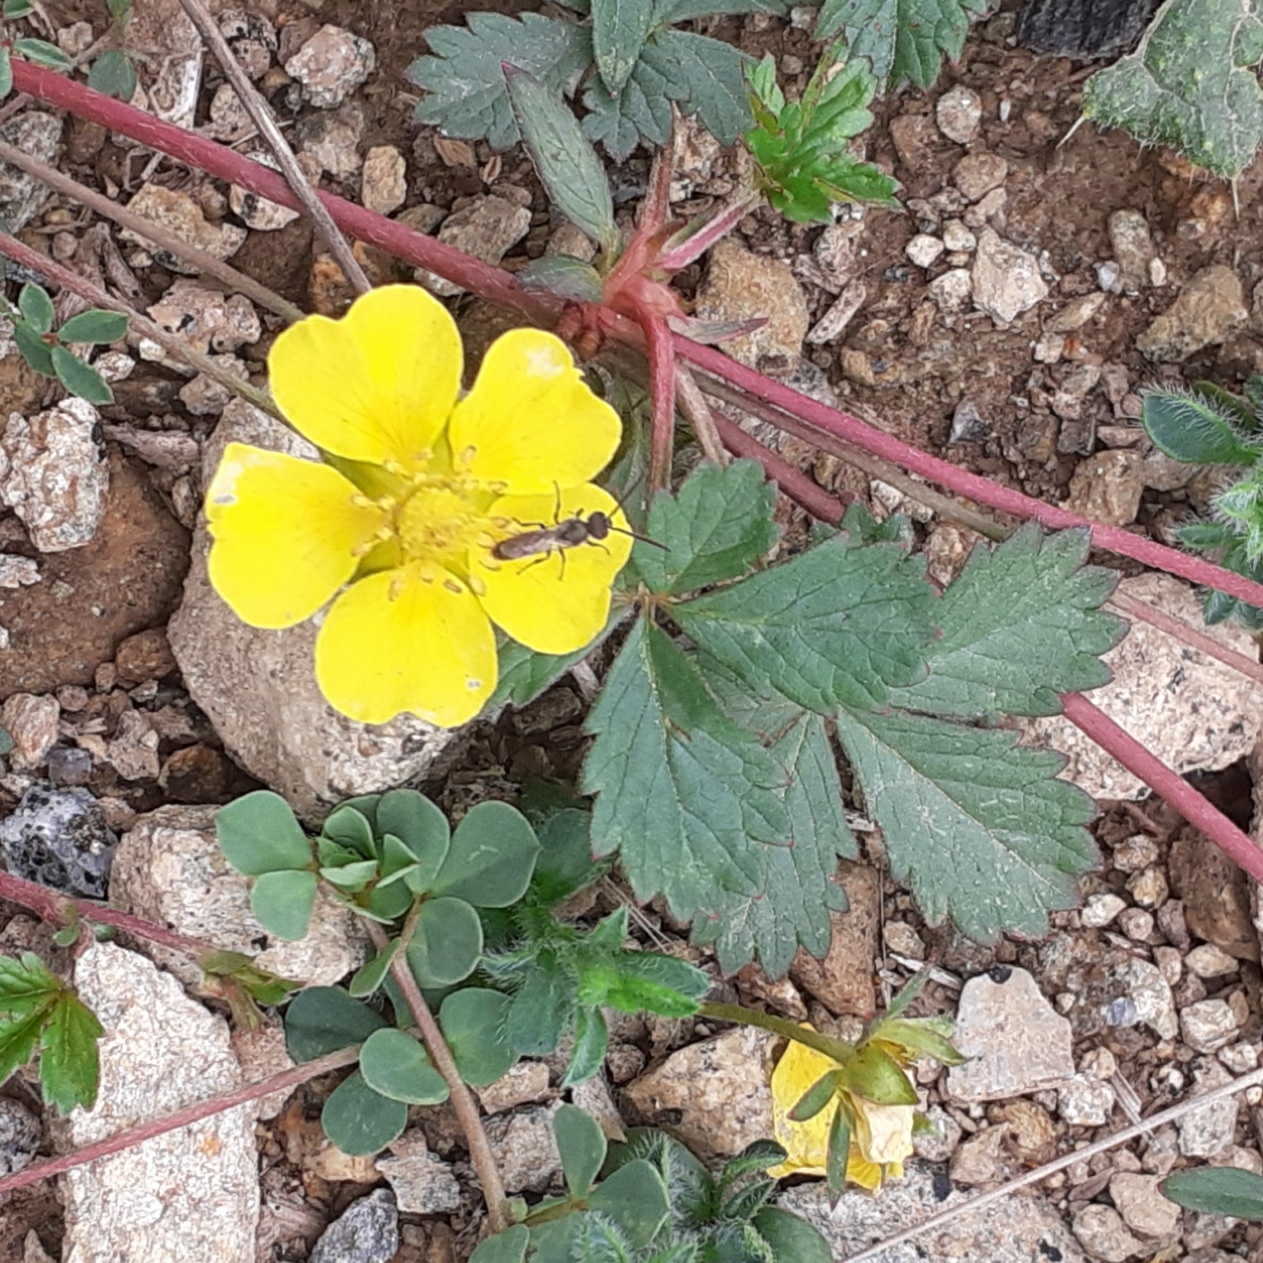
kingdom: Plantae
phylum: Tracheophyta
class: Magnoliopsida
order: Rosales
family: Rosaceae
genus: Potentilla
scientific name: Potentilla reptans
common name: Creeping cinquefoil
